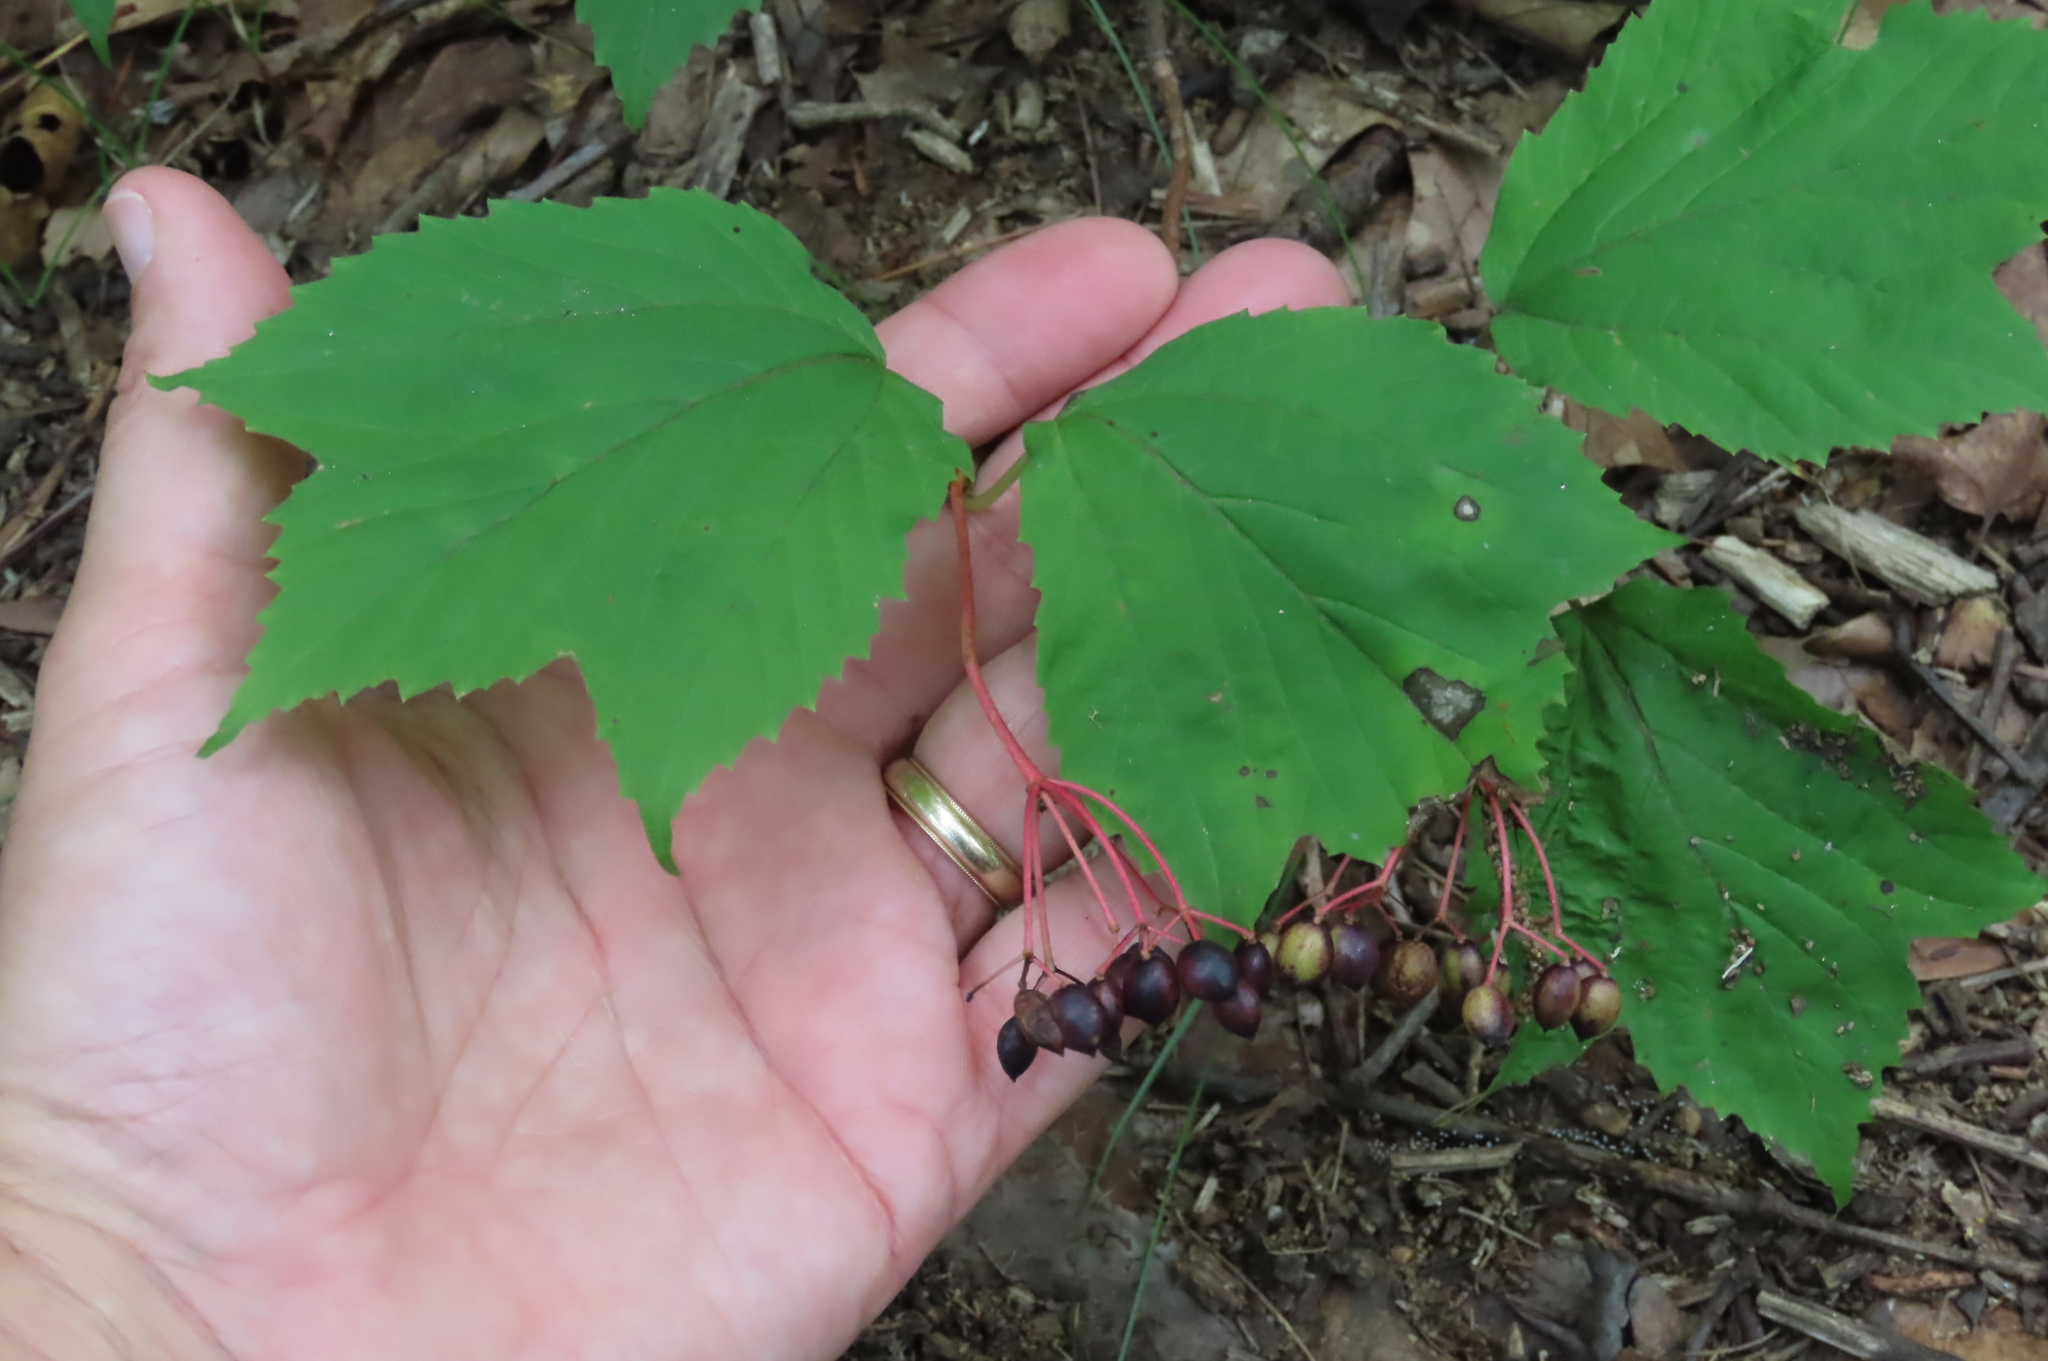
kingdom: Plantae
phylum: Tracheophyta
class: Magnoliopsida
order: Dipsacales
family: Viburnaceae
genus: Viburnum
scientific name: Viburnum acerifolium
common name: Dockmackie
